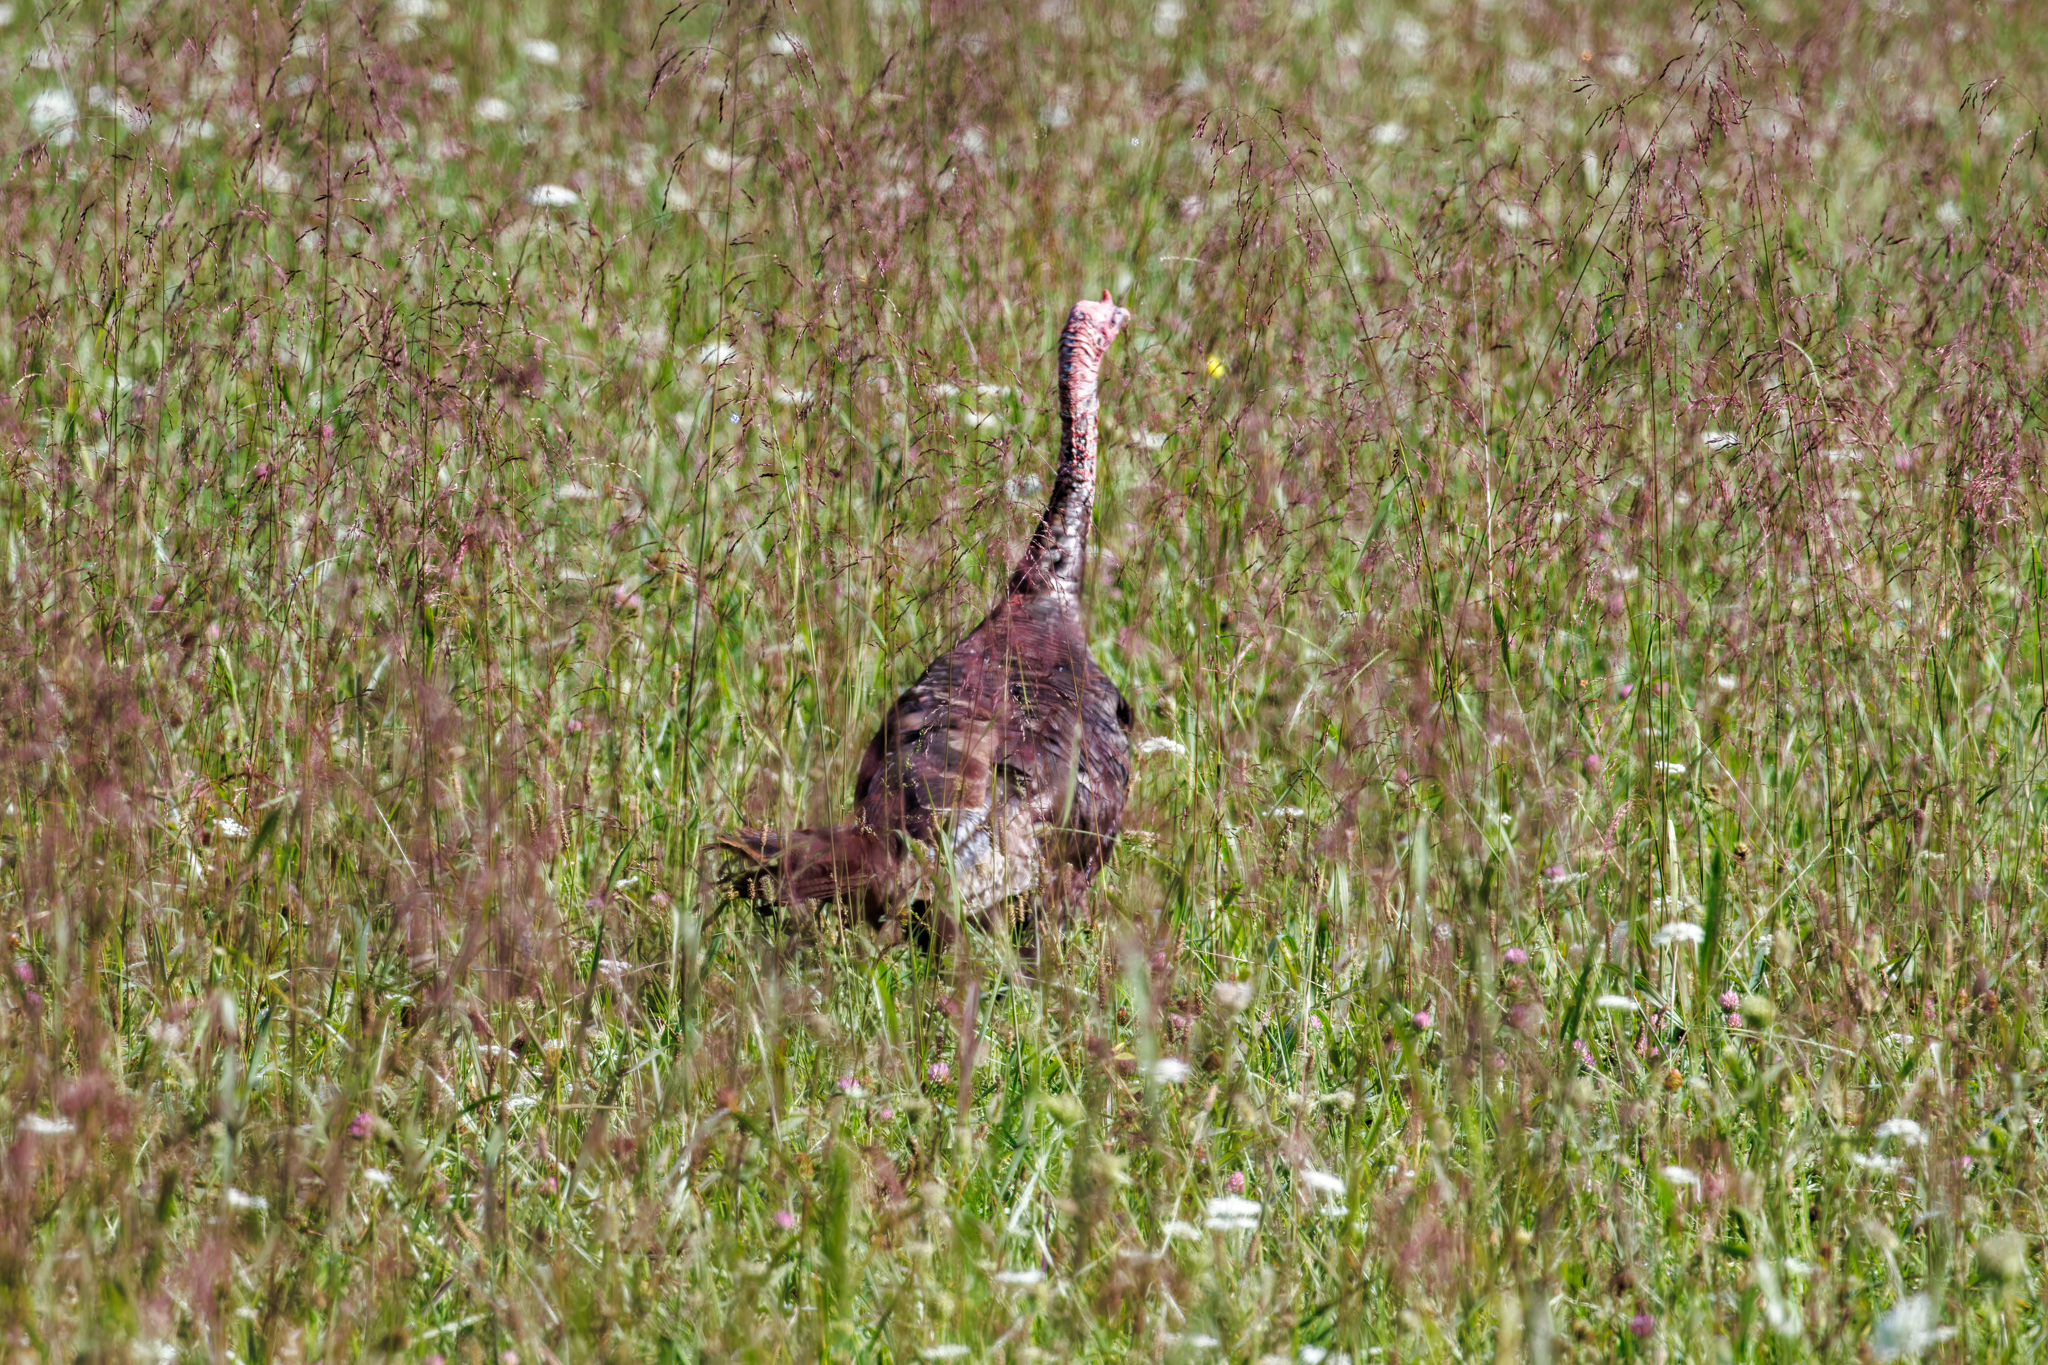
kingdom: Animalia
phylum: Chordata
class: Aves
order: Galliformes
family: Phasianidae
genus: Meleagris
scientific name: Meleagris gallopavo
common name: Wild turkey
